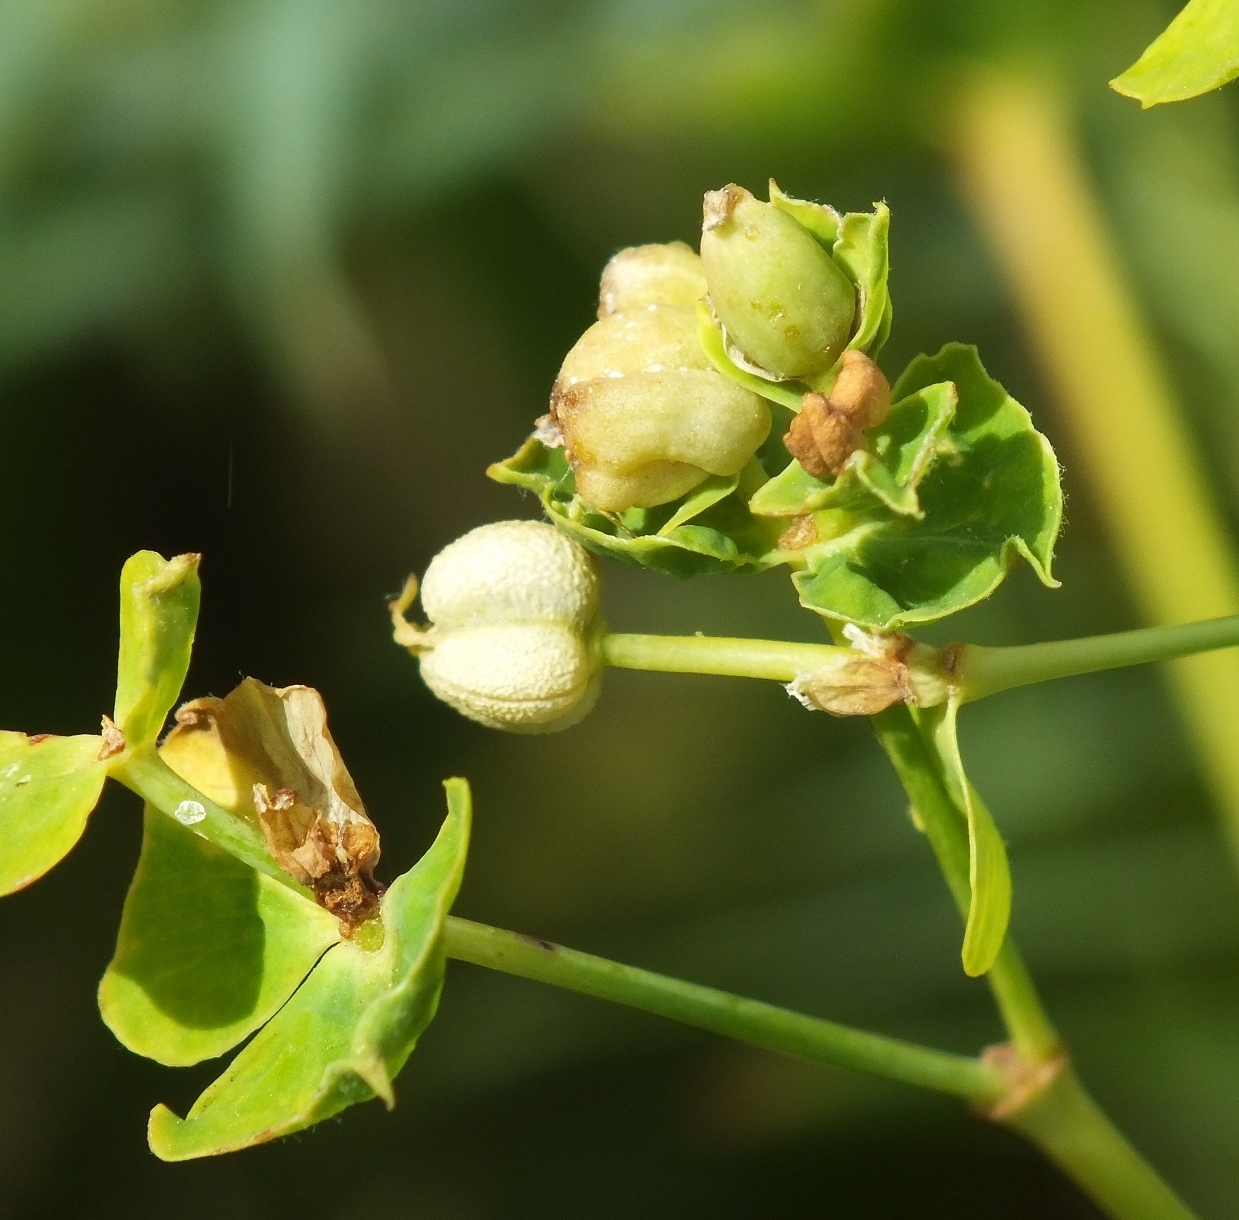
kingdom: Plantae
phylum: Tracheophyta
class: Magnoliopsida
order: Malpighiales
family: Euphorbiaceae
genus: Euphorbia
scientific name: Euphorbia semivillosa
